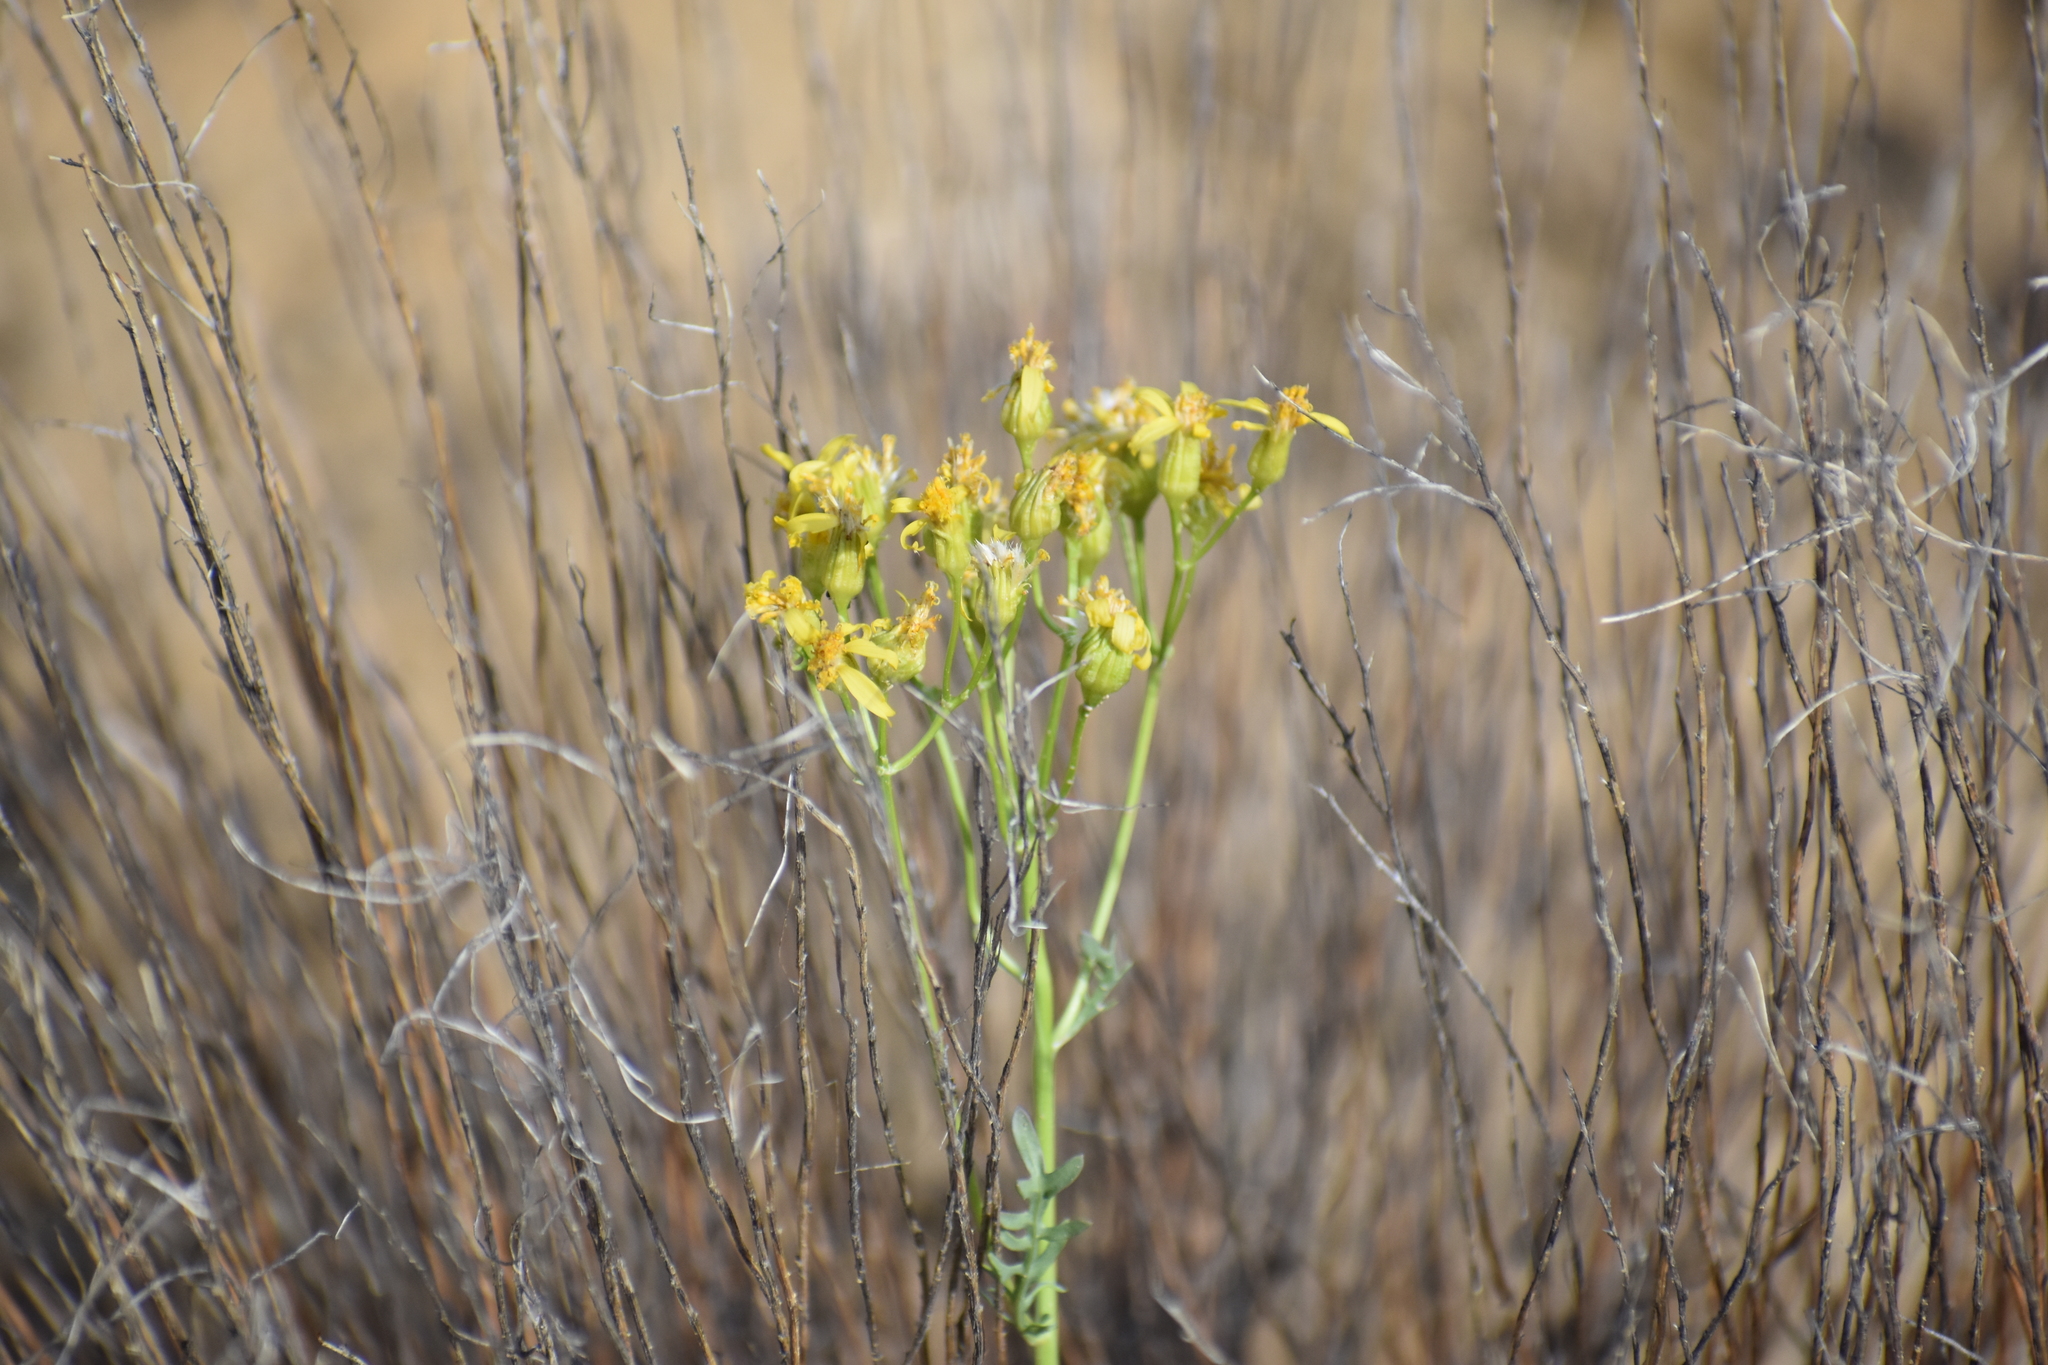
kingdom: Plantae
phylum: Tracheophyta
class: Magnoliopsida
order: Asterales
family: Asteraceae
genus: Packera
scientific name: Packera multilobata
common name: Lobe-leaf groundsel
